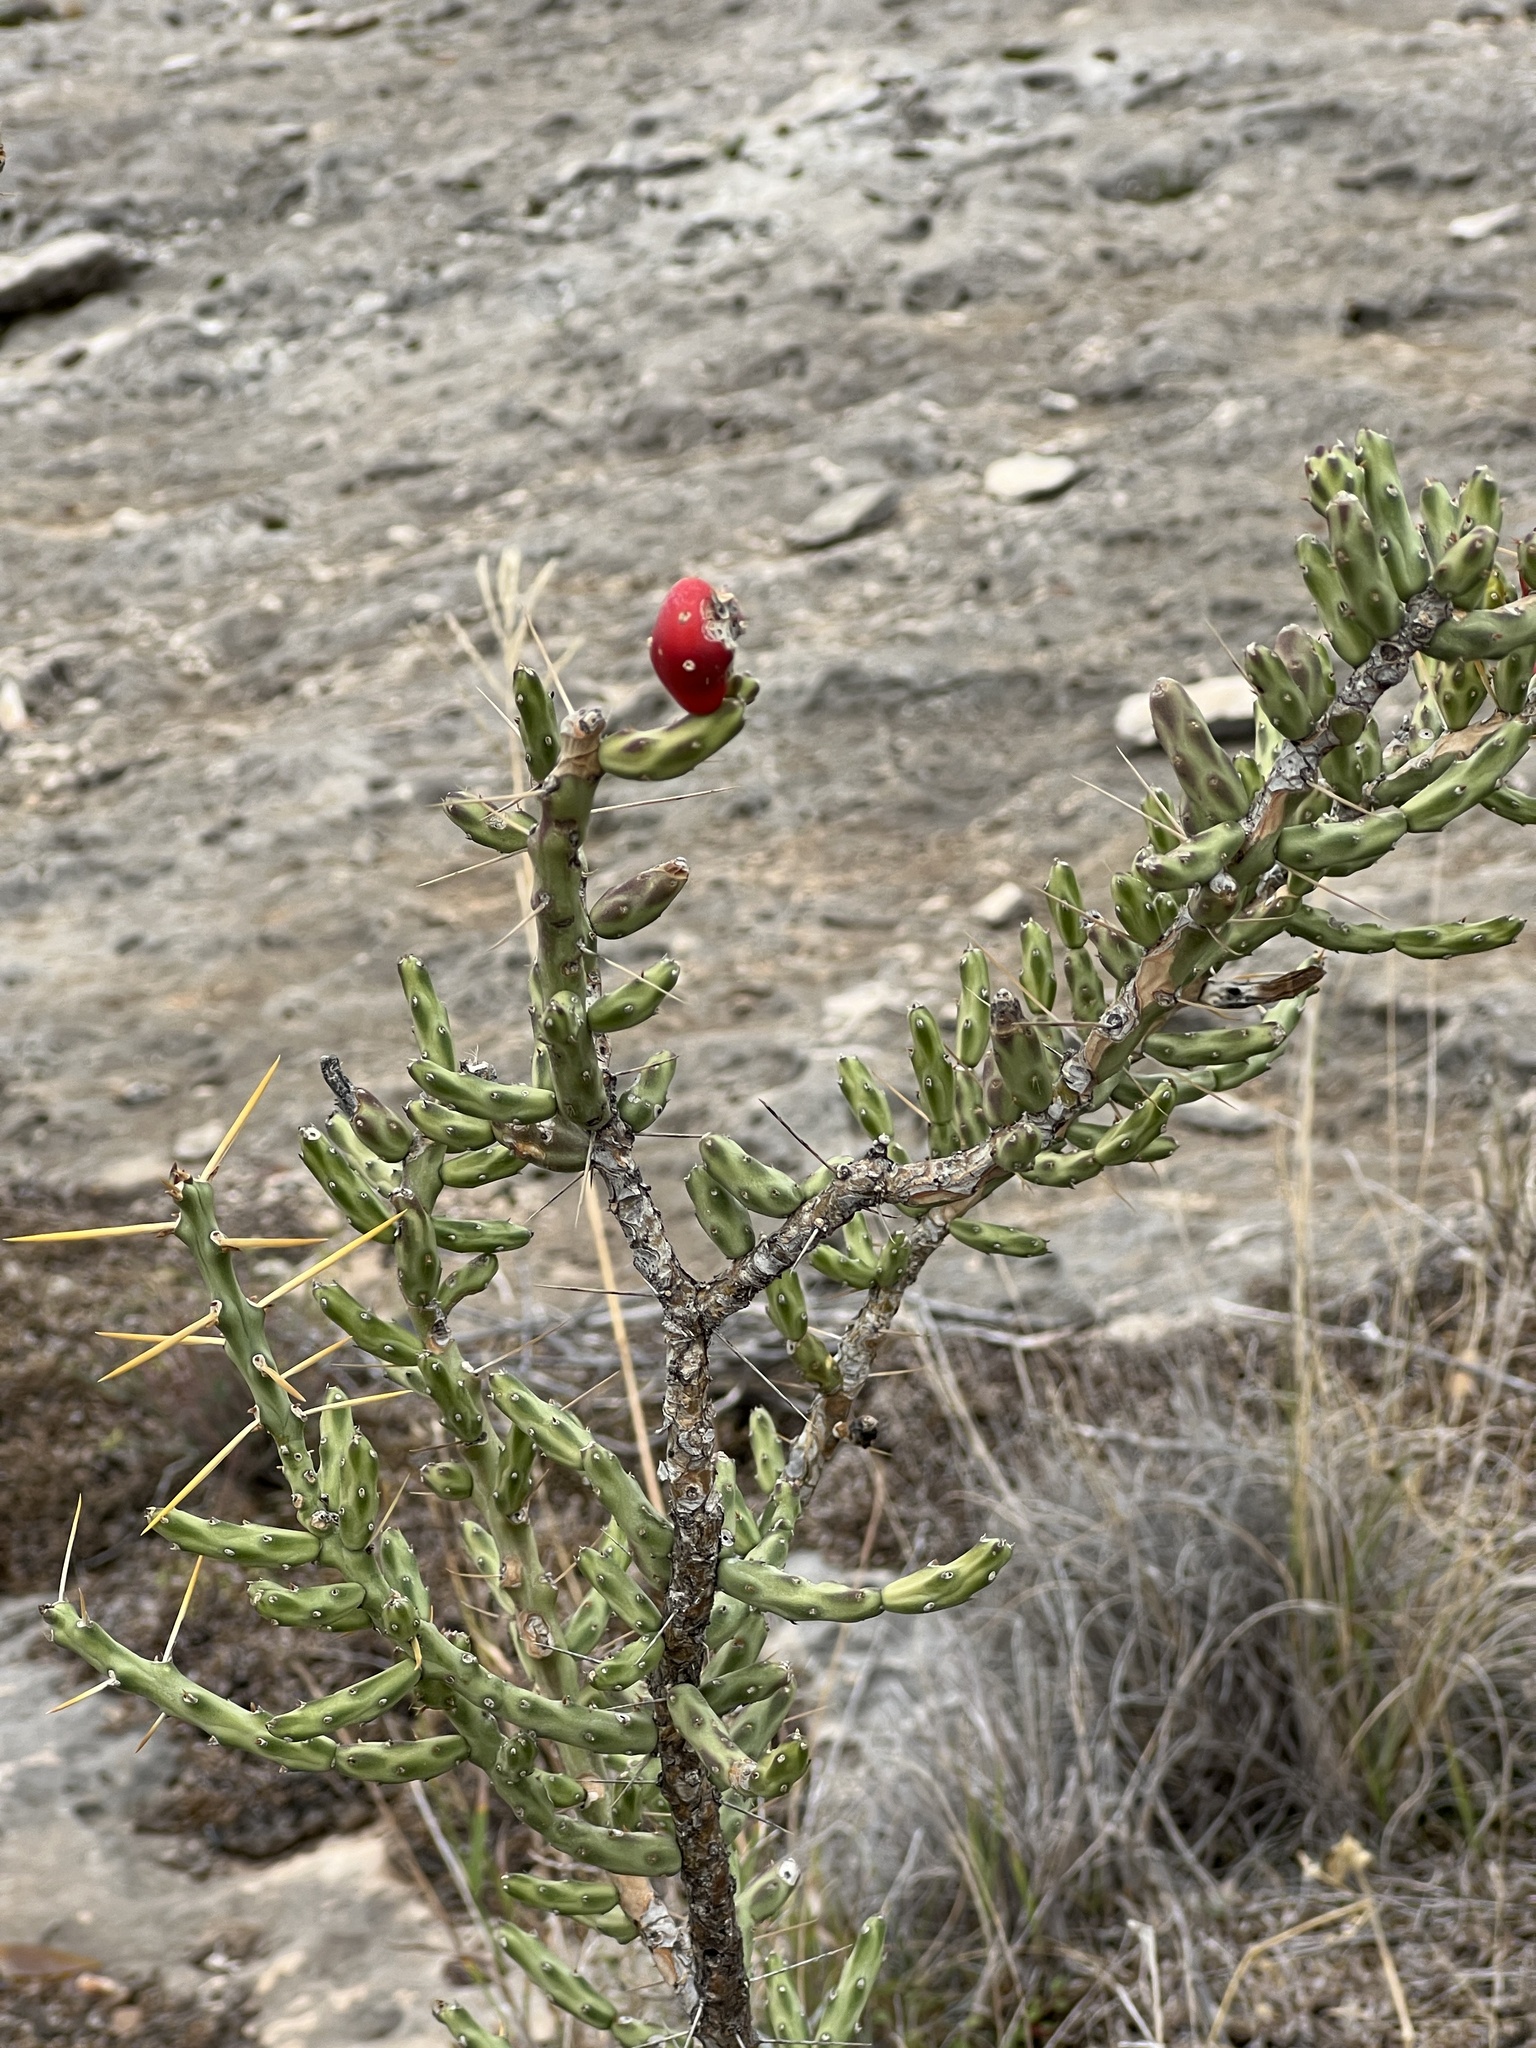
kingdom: Plantae
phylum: Tracheophyta
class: Magnoliopsida
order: Caryophyllales
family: Cactaceae
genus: Cylindropuntia
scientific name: Cylindropuntia leptocaulis
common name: Christmas cactus
